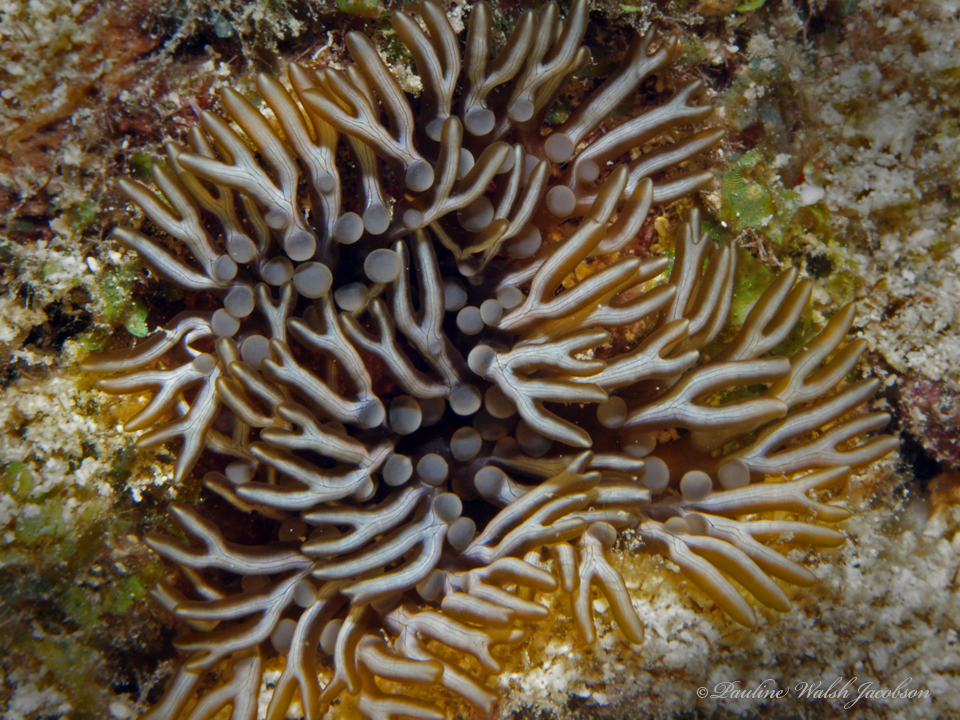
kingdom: Animalia
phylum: Cnidaria
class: Anthozoa
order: Actiniaria
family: Aliciidae
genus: Lebrunia
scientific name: Lebrunia neglecta
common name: Branching anemone
